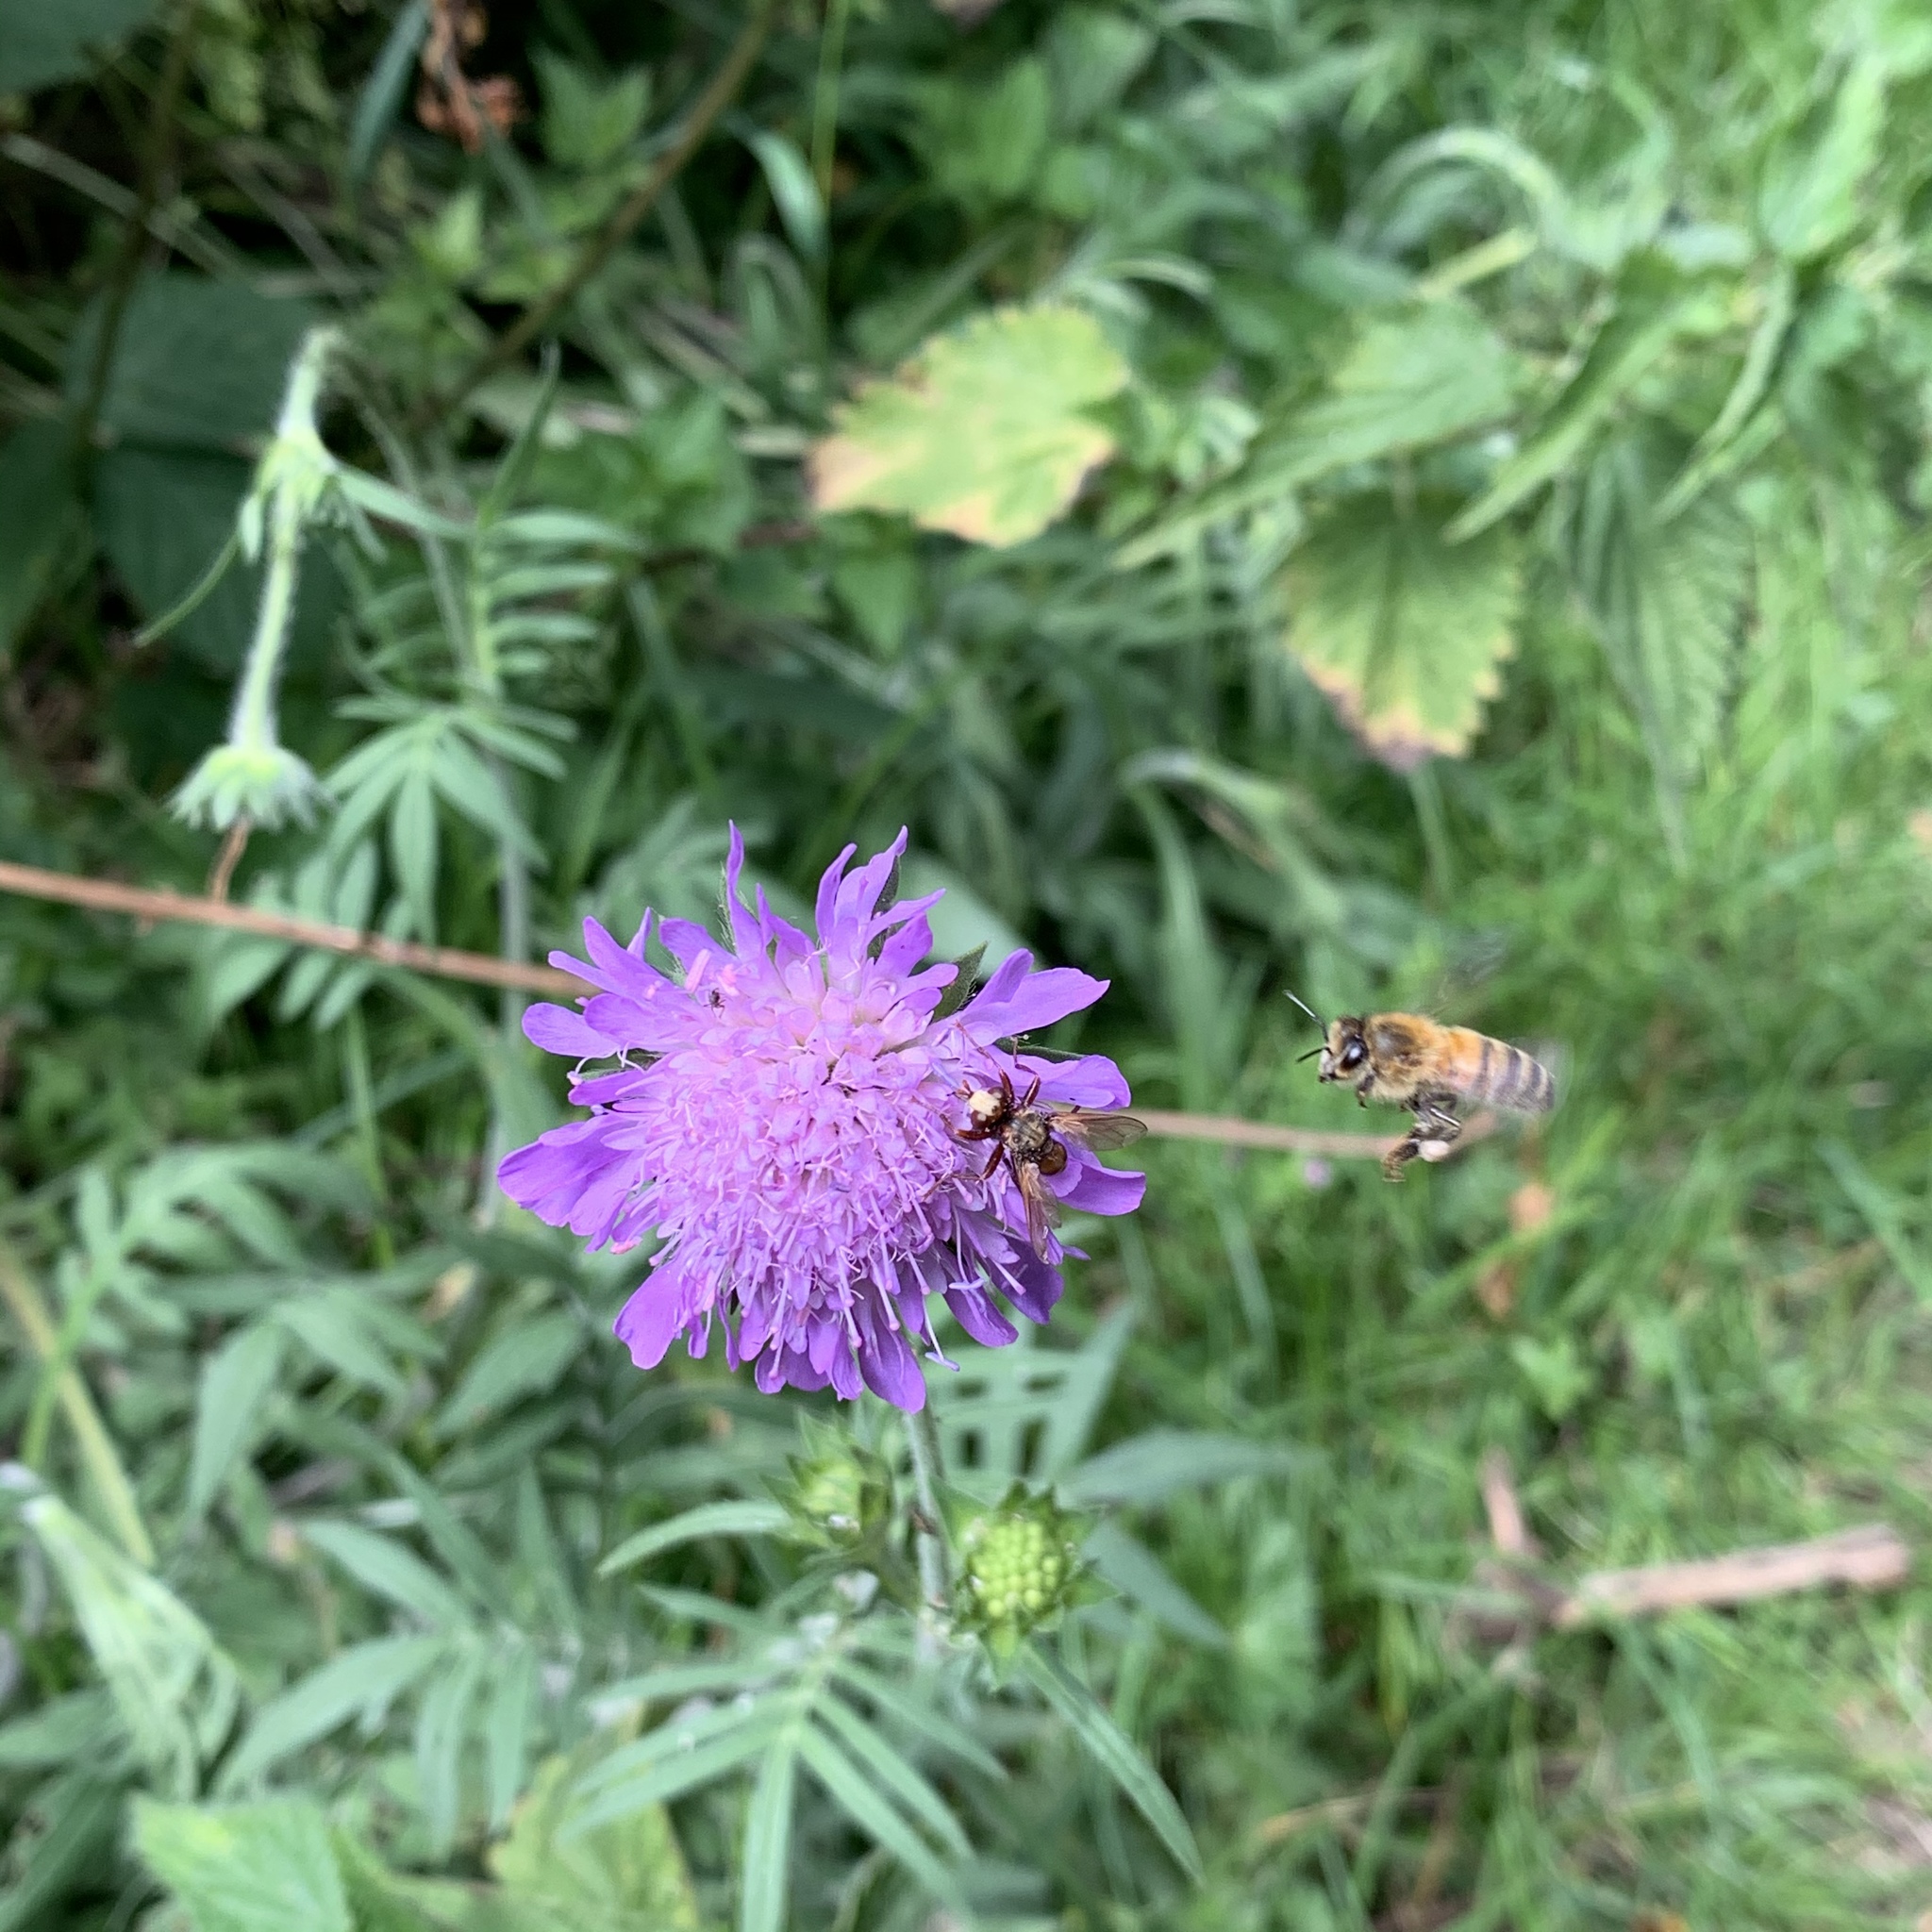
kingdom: Animalia
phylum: Arthropoda
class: Insecta
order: Hymenoptera
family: Apidae
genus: Apis
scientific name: Apis mellifera
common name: Honey bee
